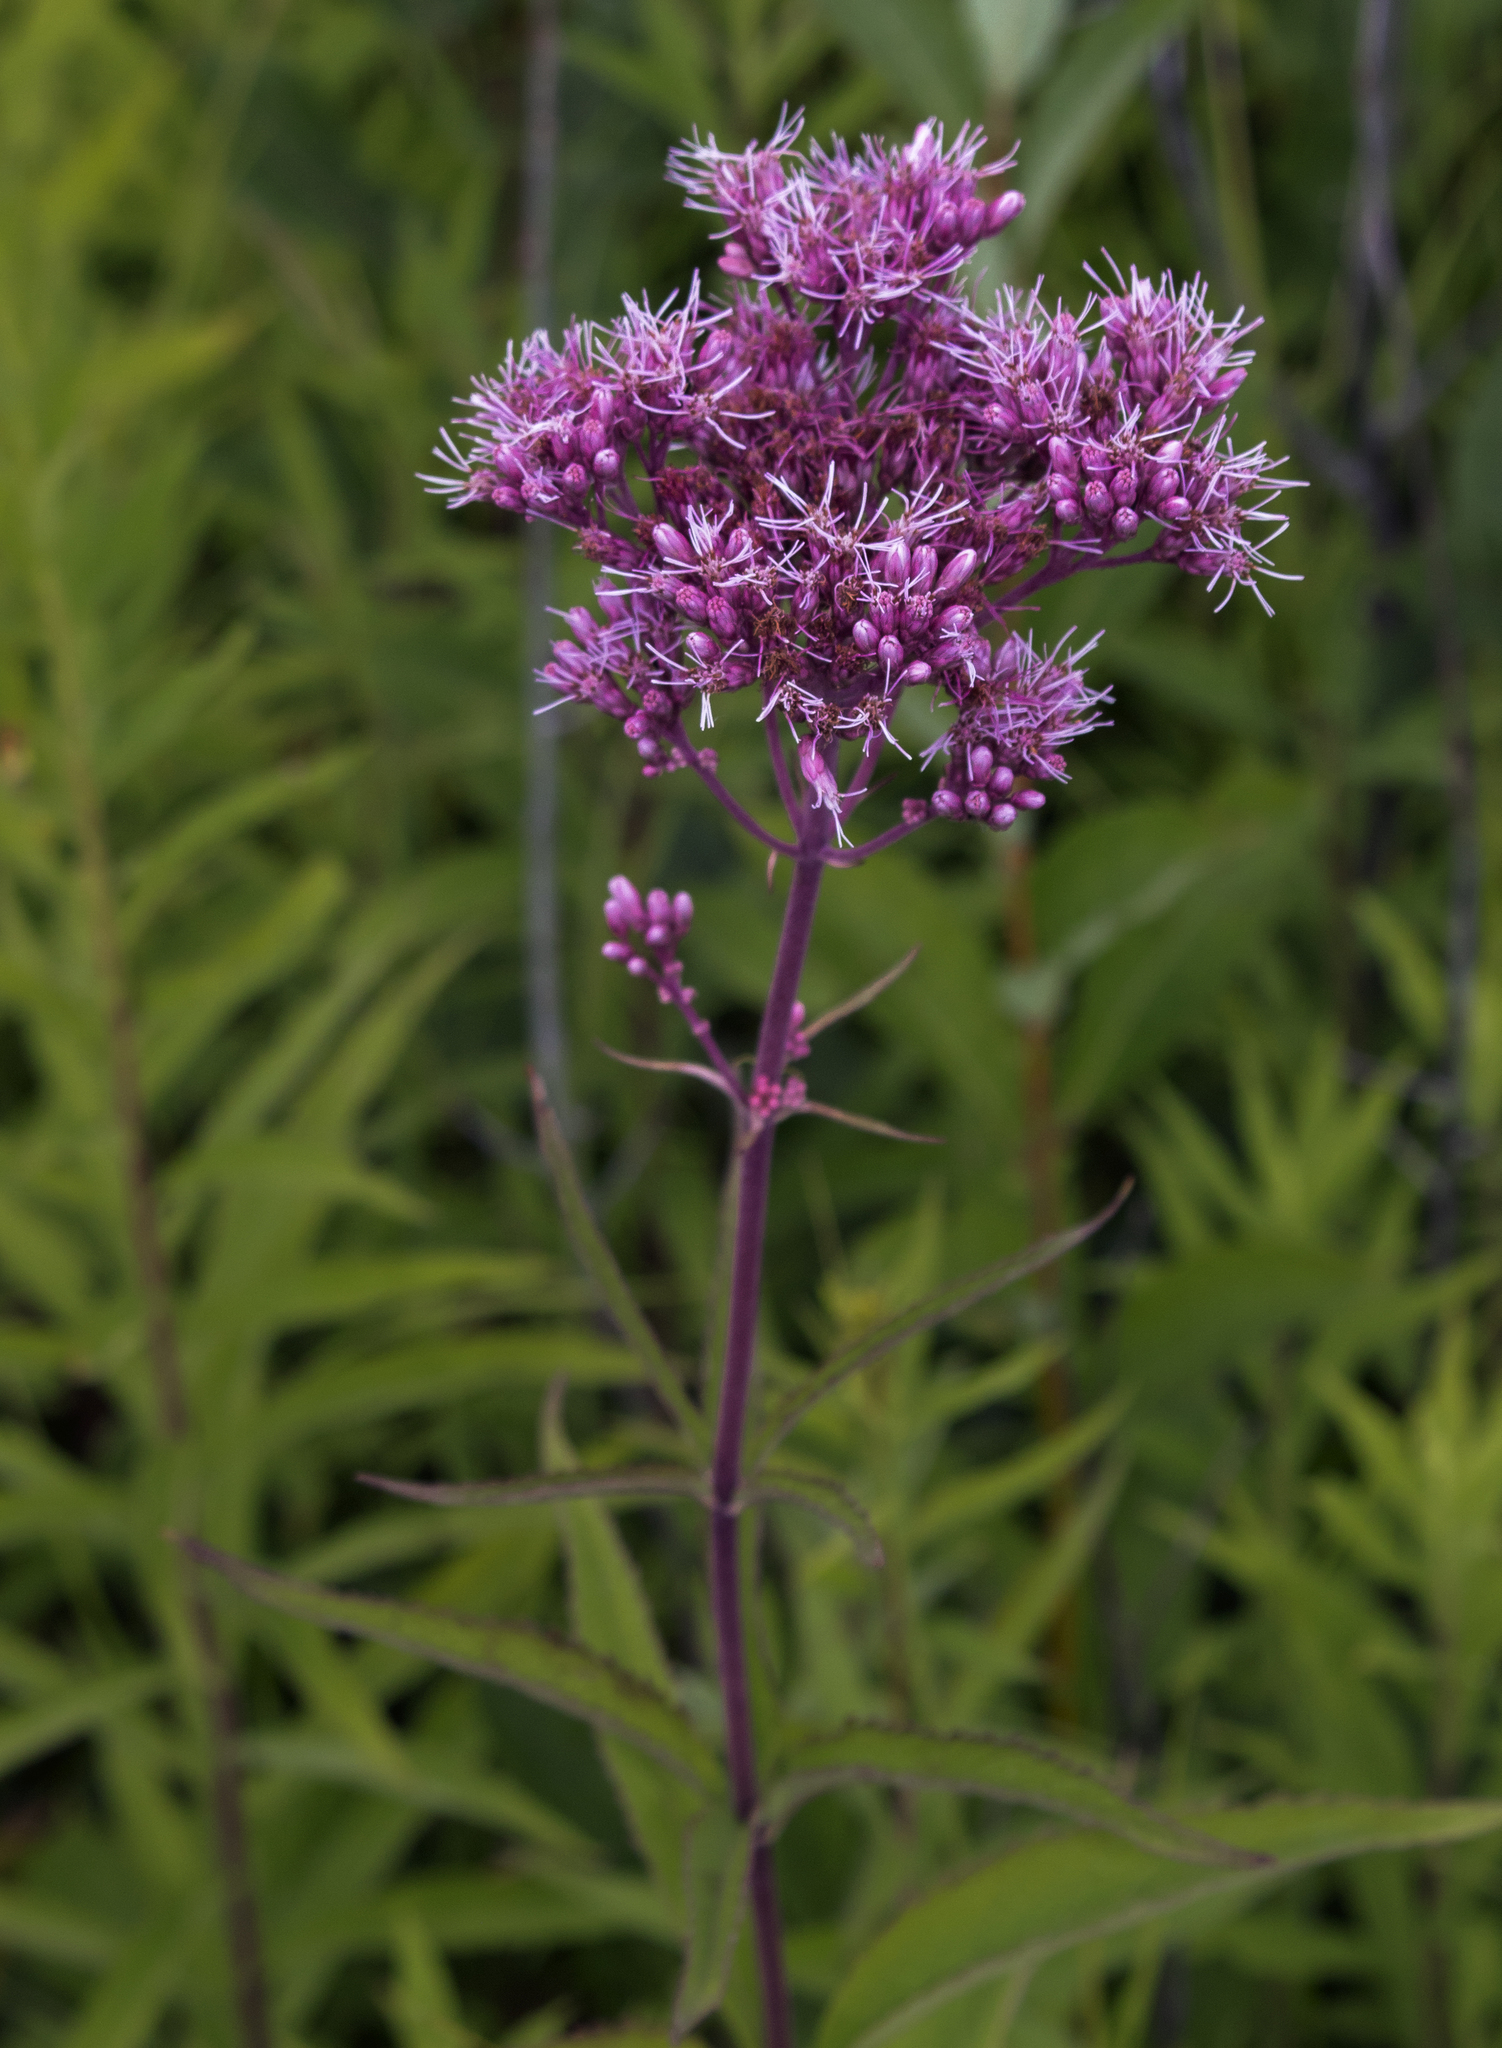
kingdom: Plantae
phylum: Tracheophyta
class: Magnoliopsida
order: Asterales
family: Asteraceae
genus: Eutrochium
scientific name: Eutrochium maculatum
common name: Spotted joe pye weed
